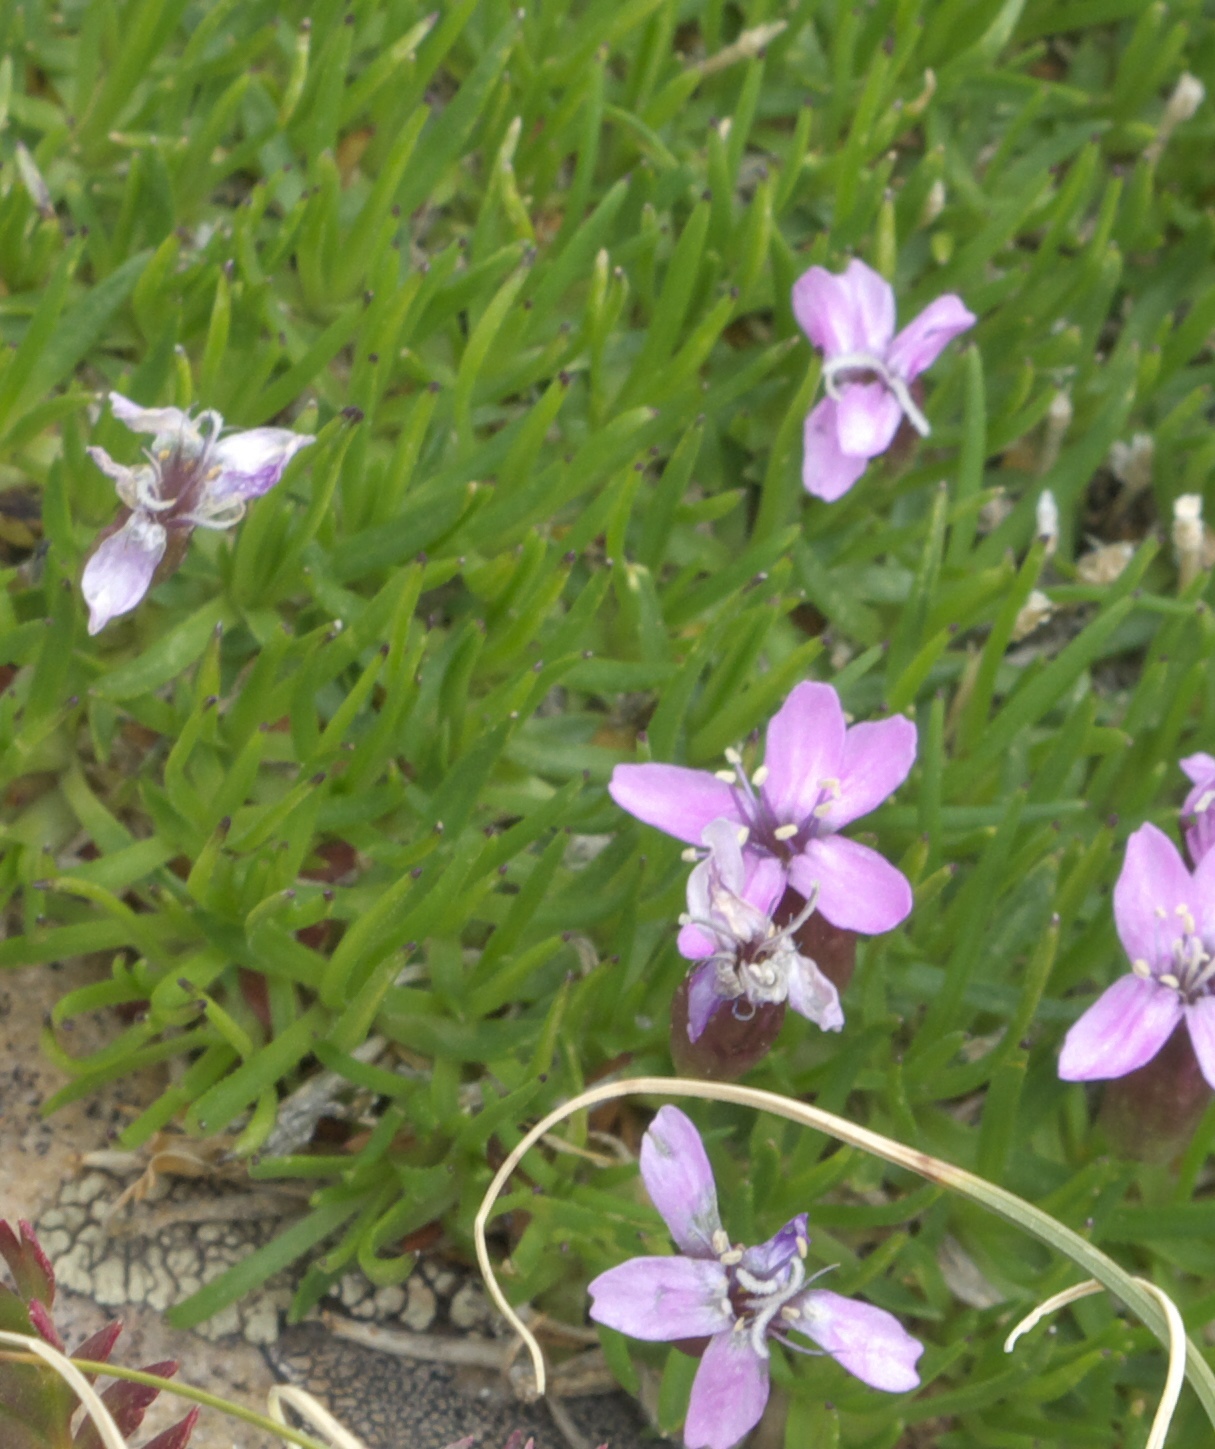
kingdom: Plantae
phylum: Tracheophyta
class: Magnoliopsida
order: Caryophyllales
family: Caryophyllaceae
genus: Silene
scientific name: Silene acaulis
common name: Moss campion
